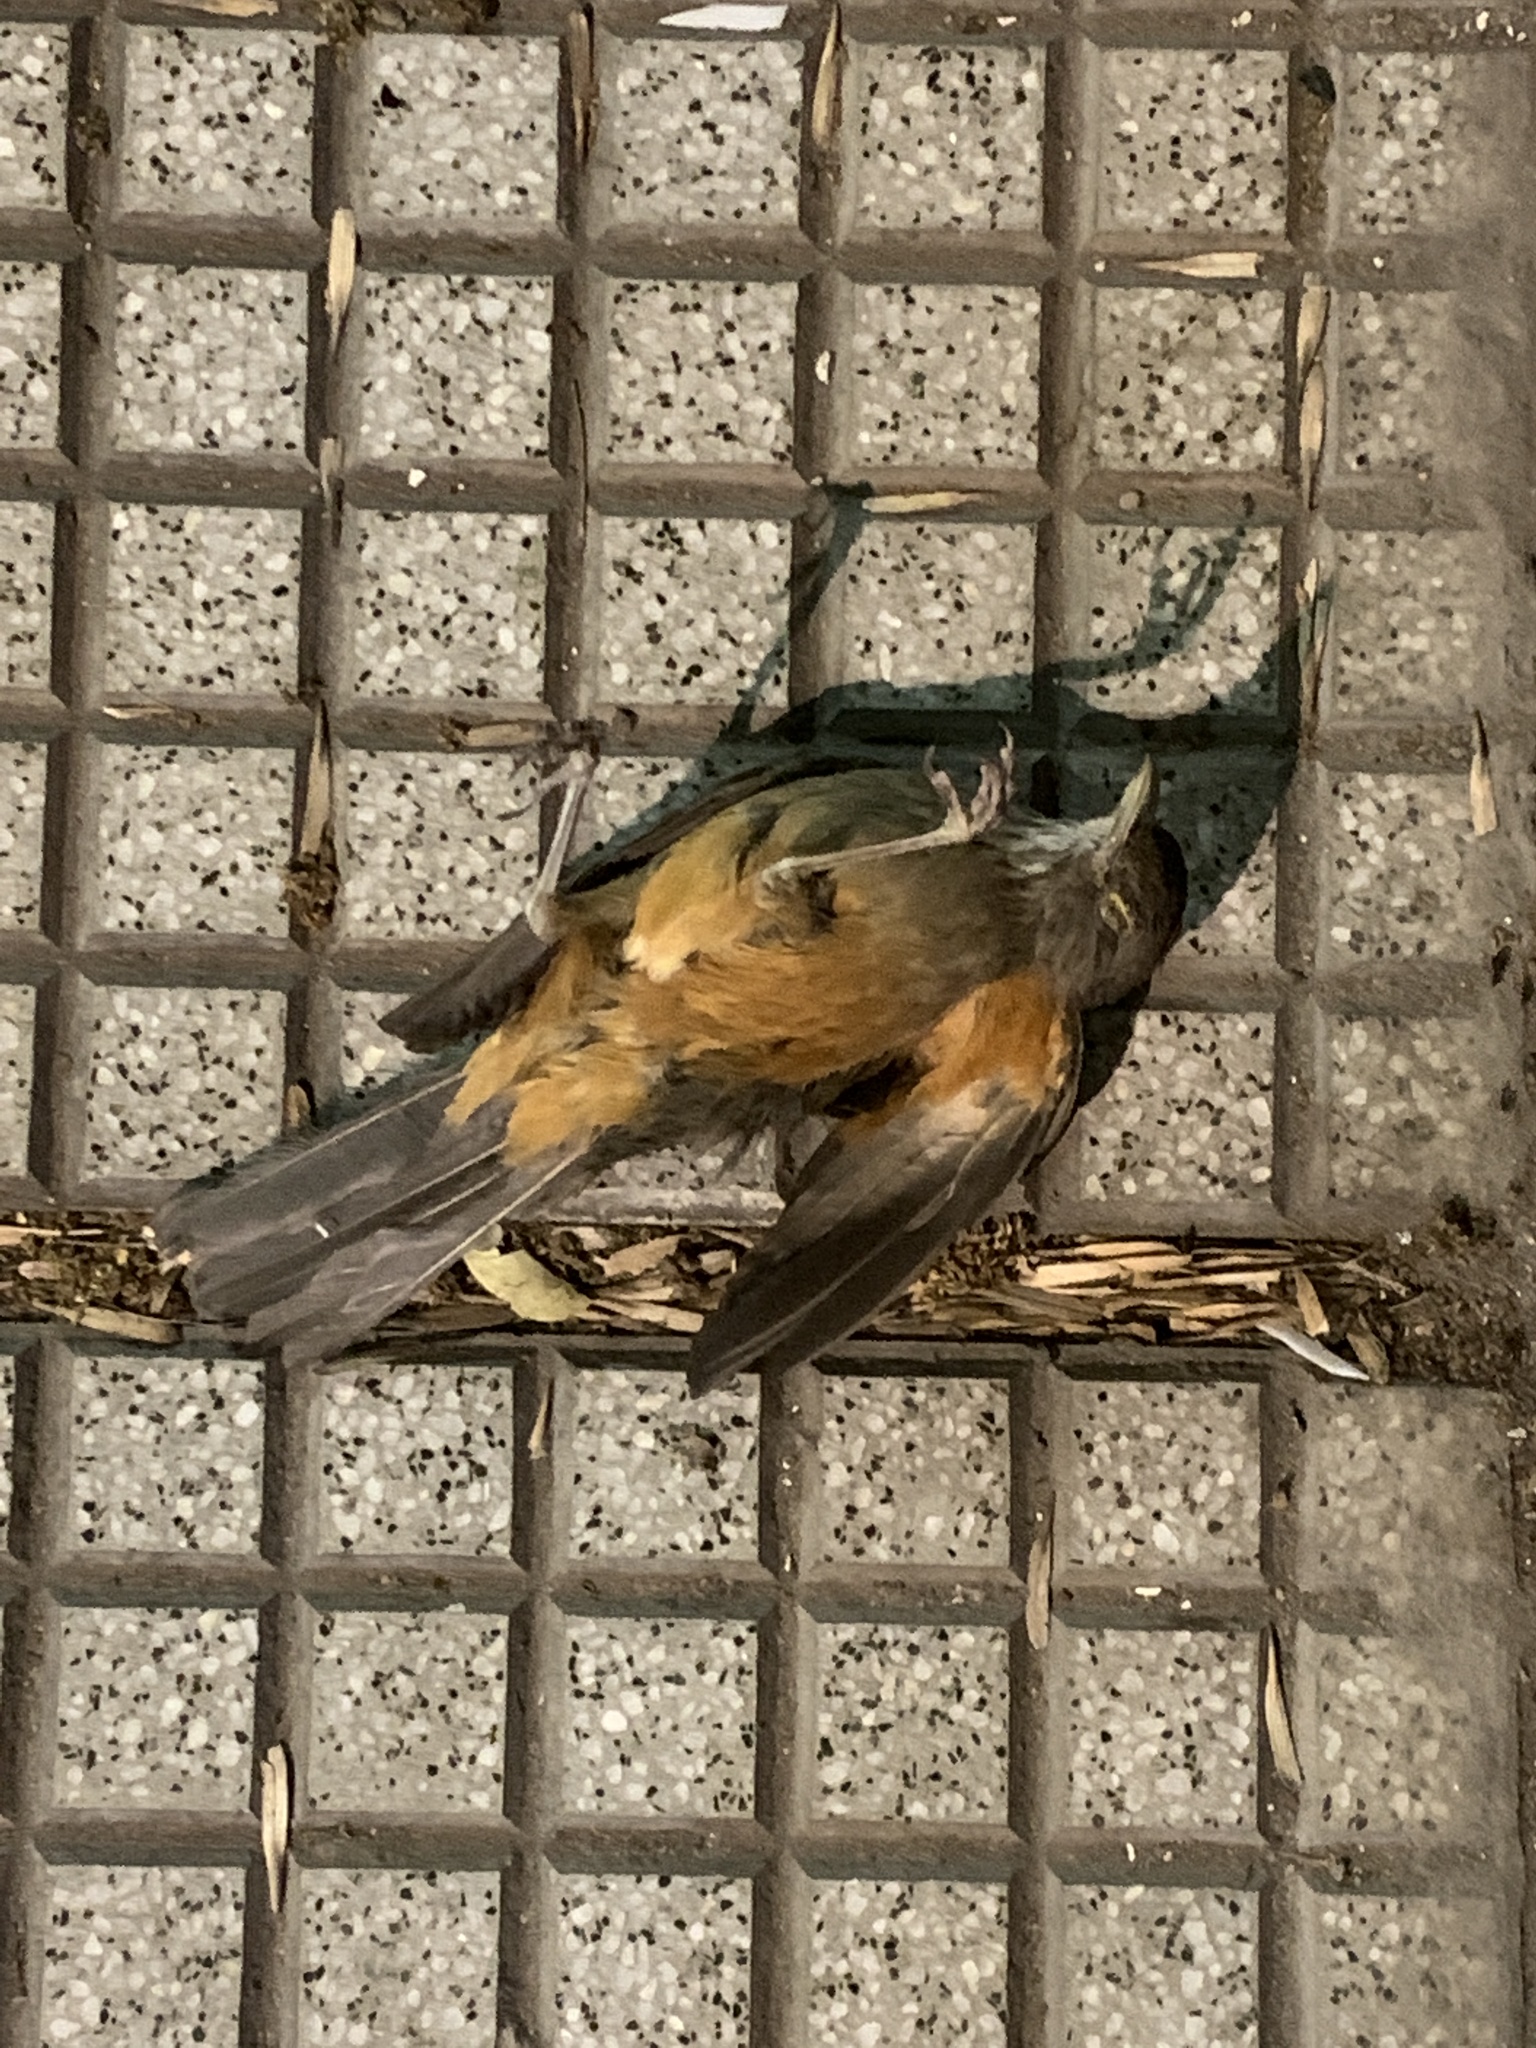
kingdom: Animalia
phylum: Chordata
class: Aves
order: Passeriformes
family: Turdidae
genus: Turdus
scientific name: Turdus rufiventris
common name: Rufous-bellied thrush
